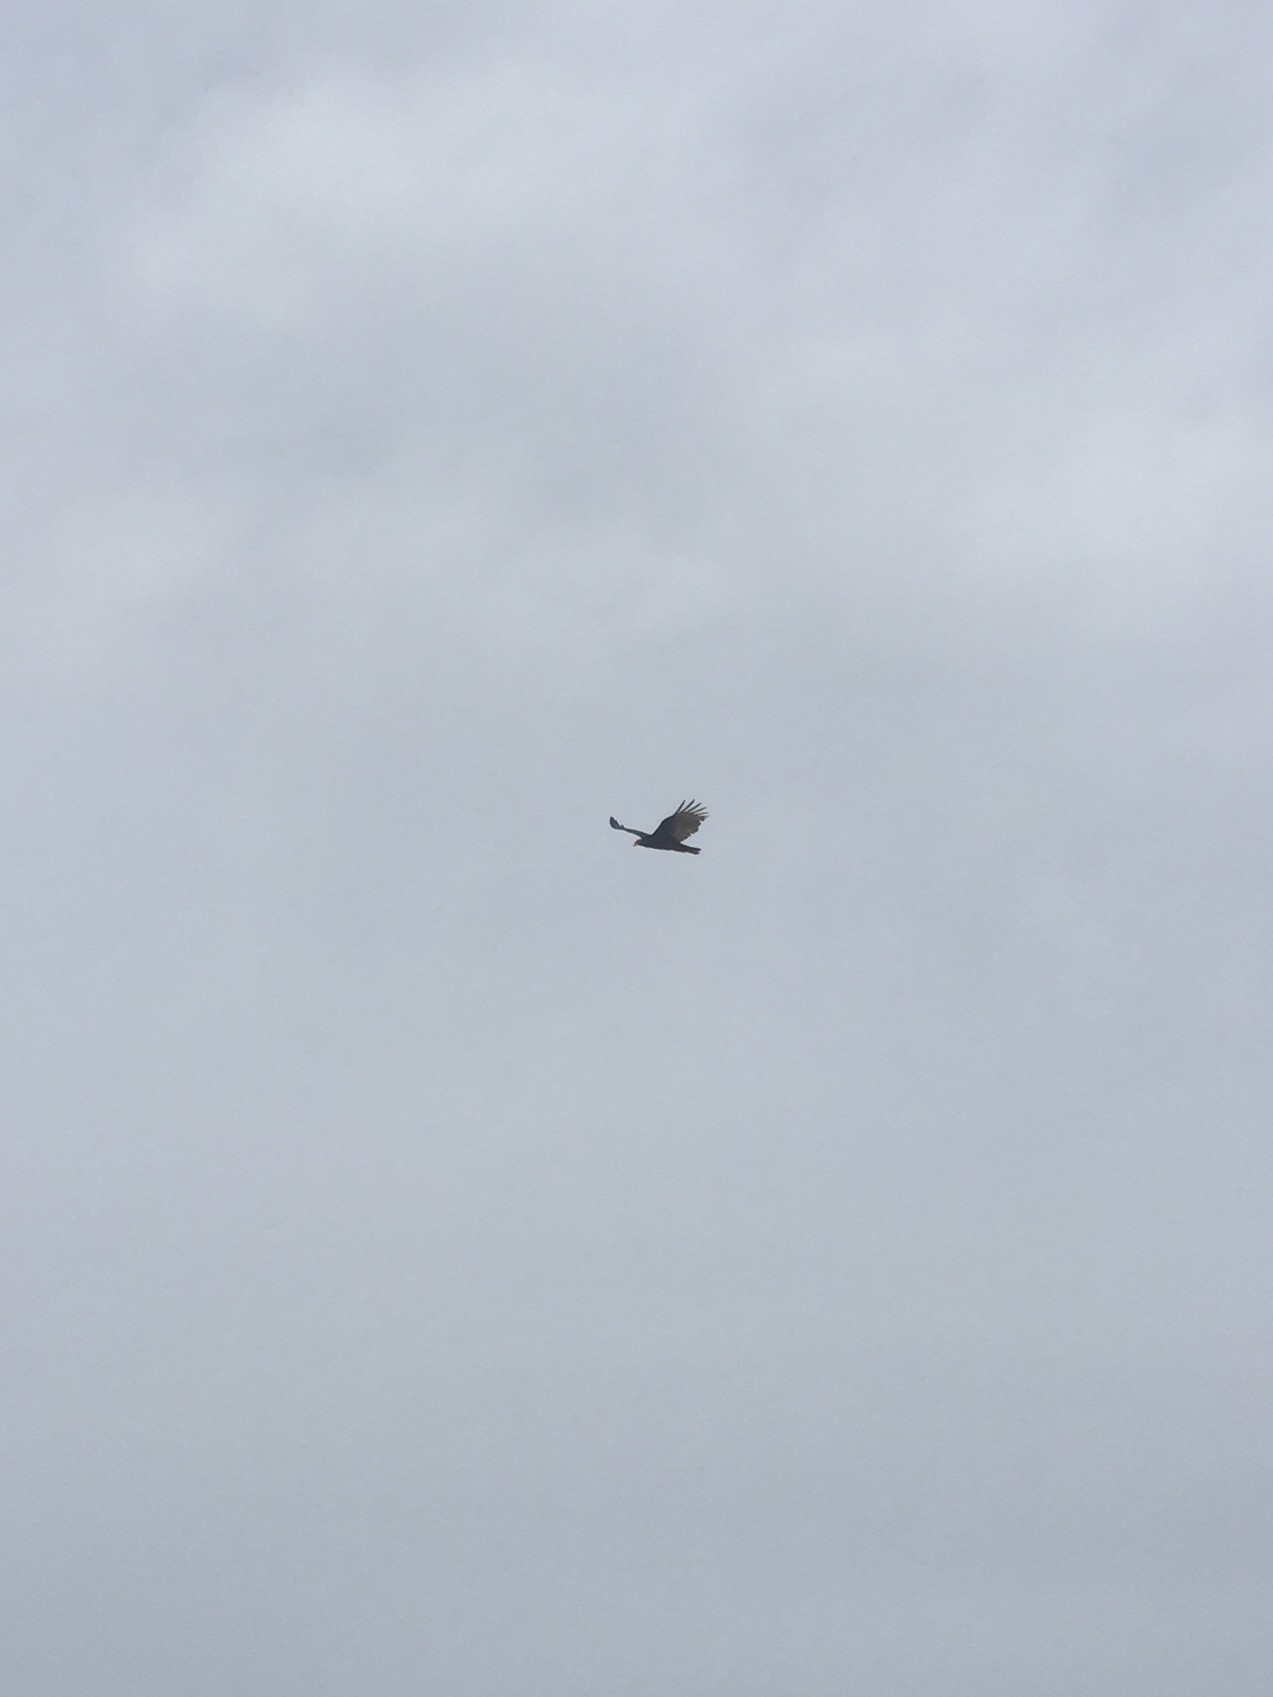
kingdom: Animalia
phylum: Chordata
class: Aves
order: Accipitriformes
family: Cathartidae
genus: Cathartes
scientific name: Cathartes aura
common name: Turkey vulture
